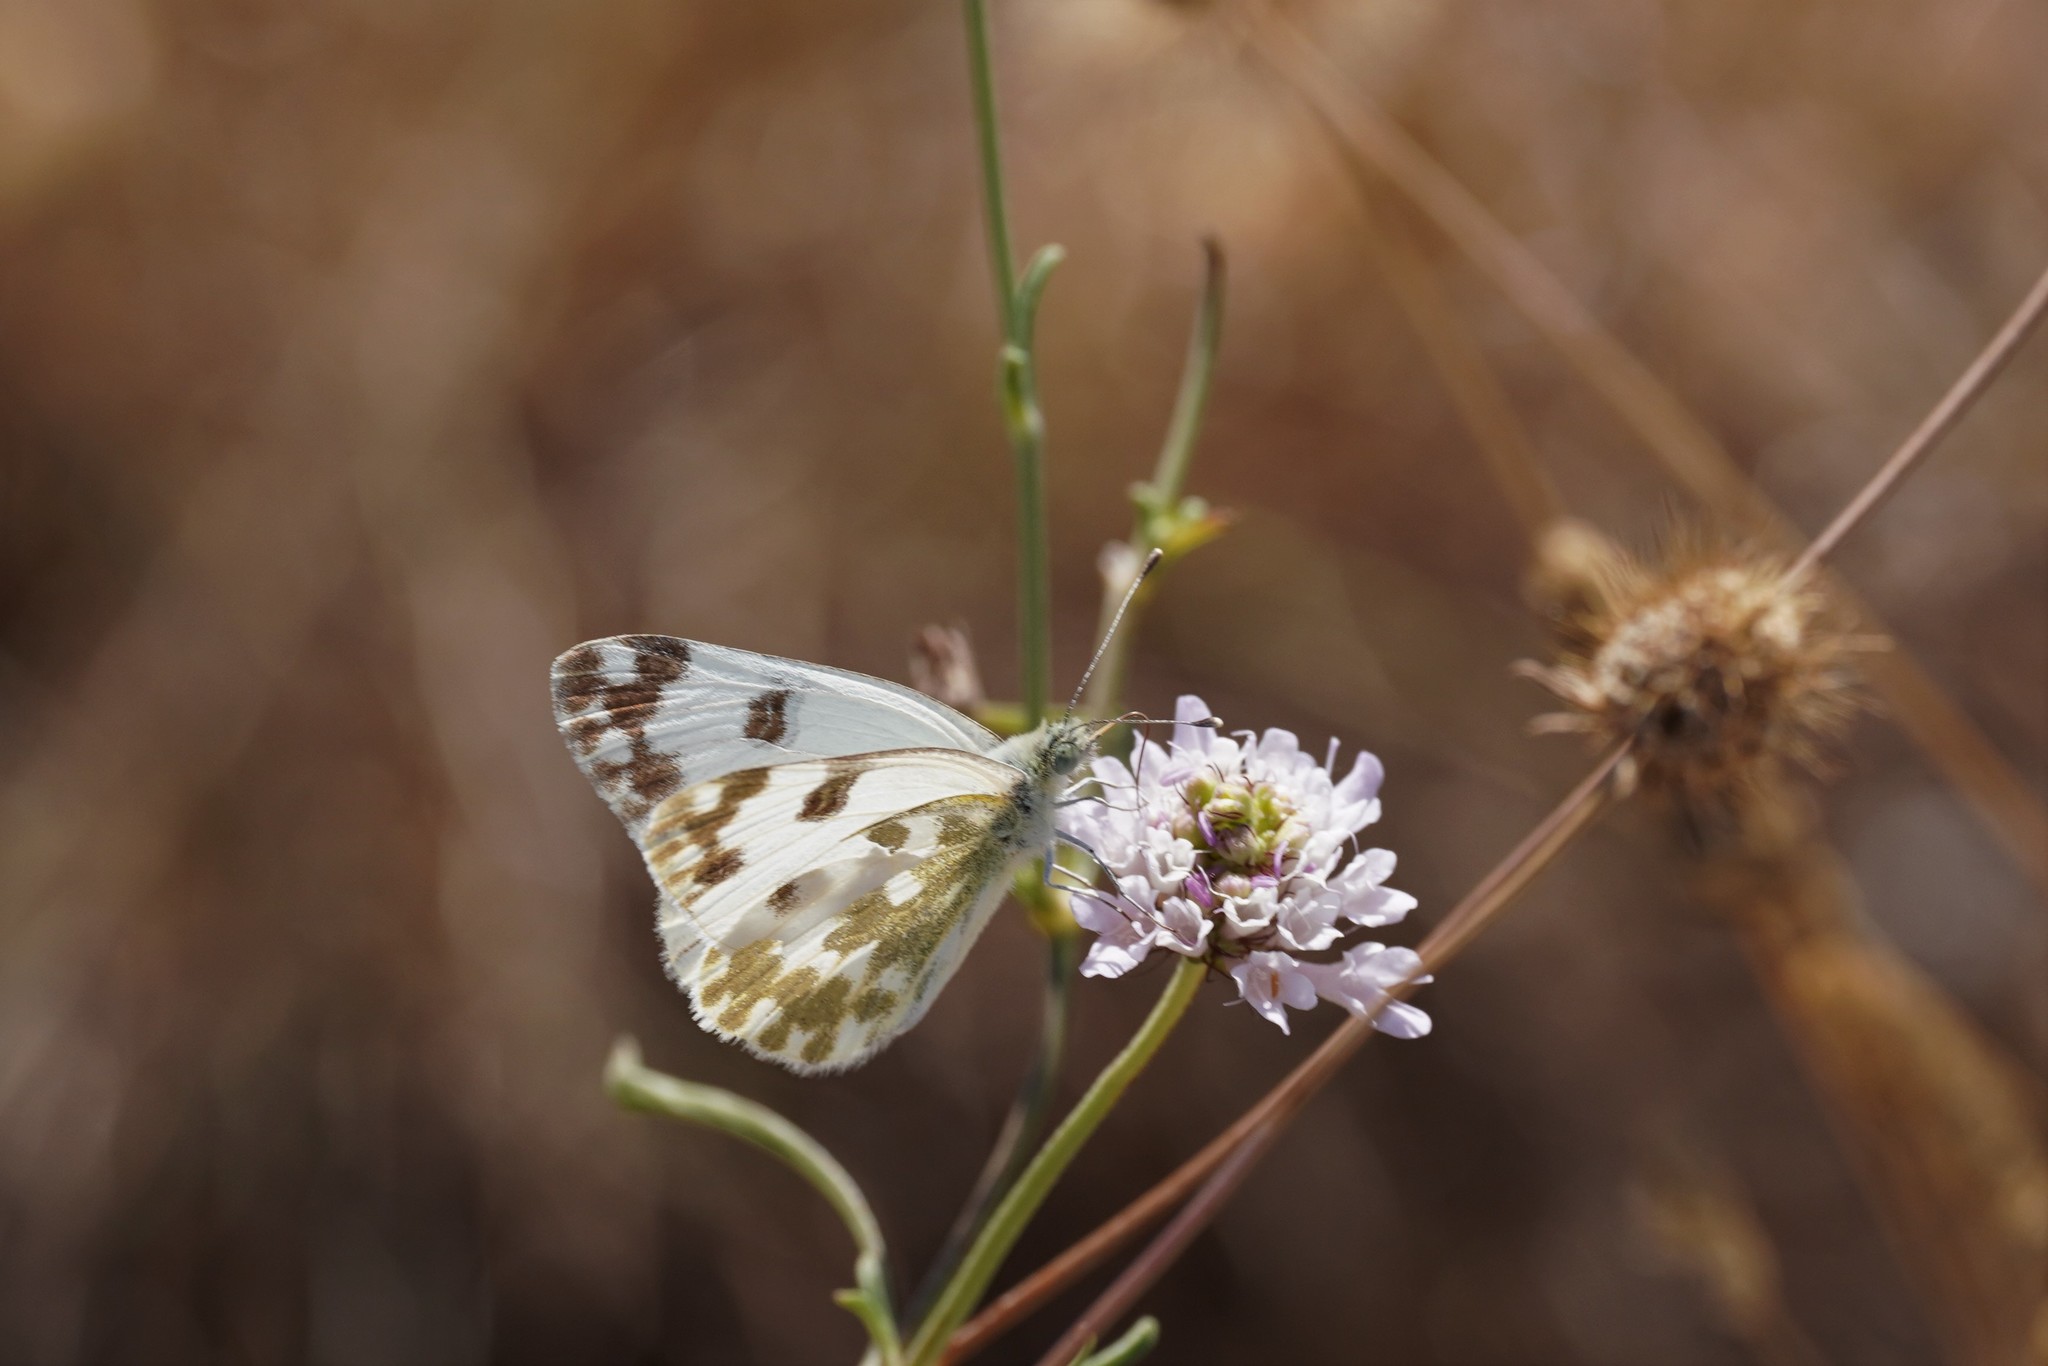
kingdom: Animalia
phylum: Arthropoda
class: Insecta
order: Lepidoptera
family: Pieridae
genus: Pontia
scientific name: Pontia daplidice
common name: Bath white
